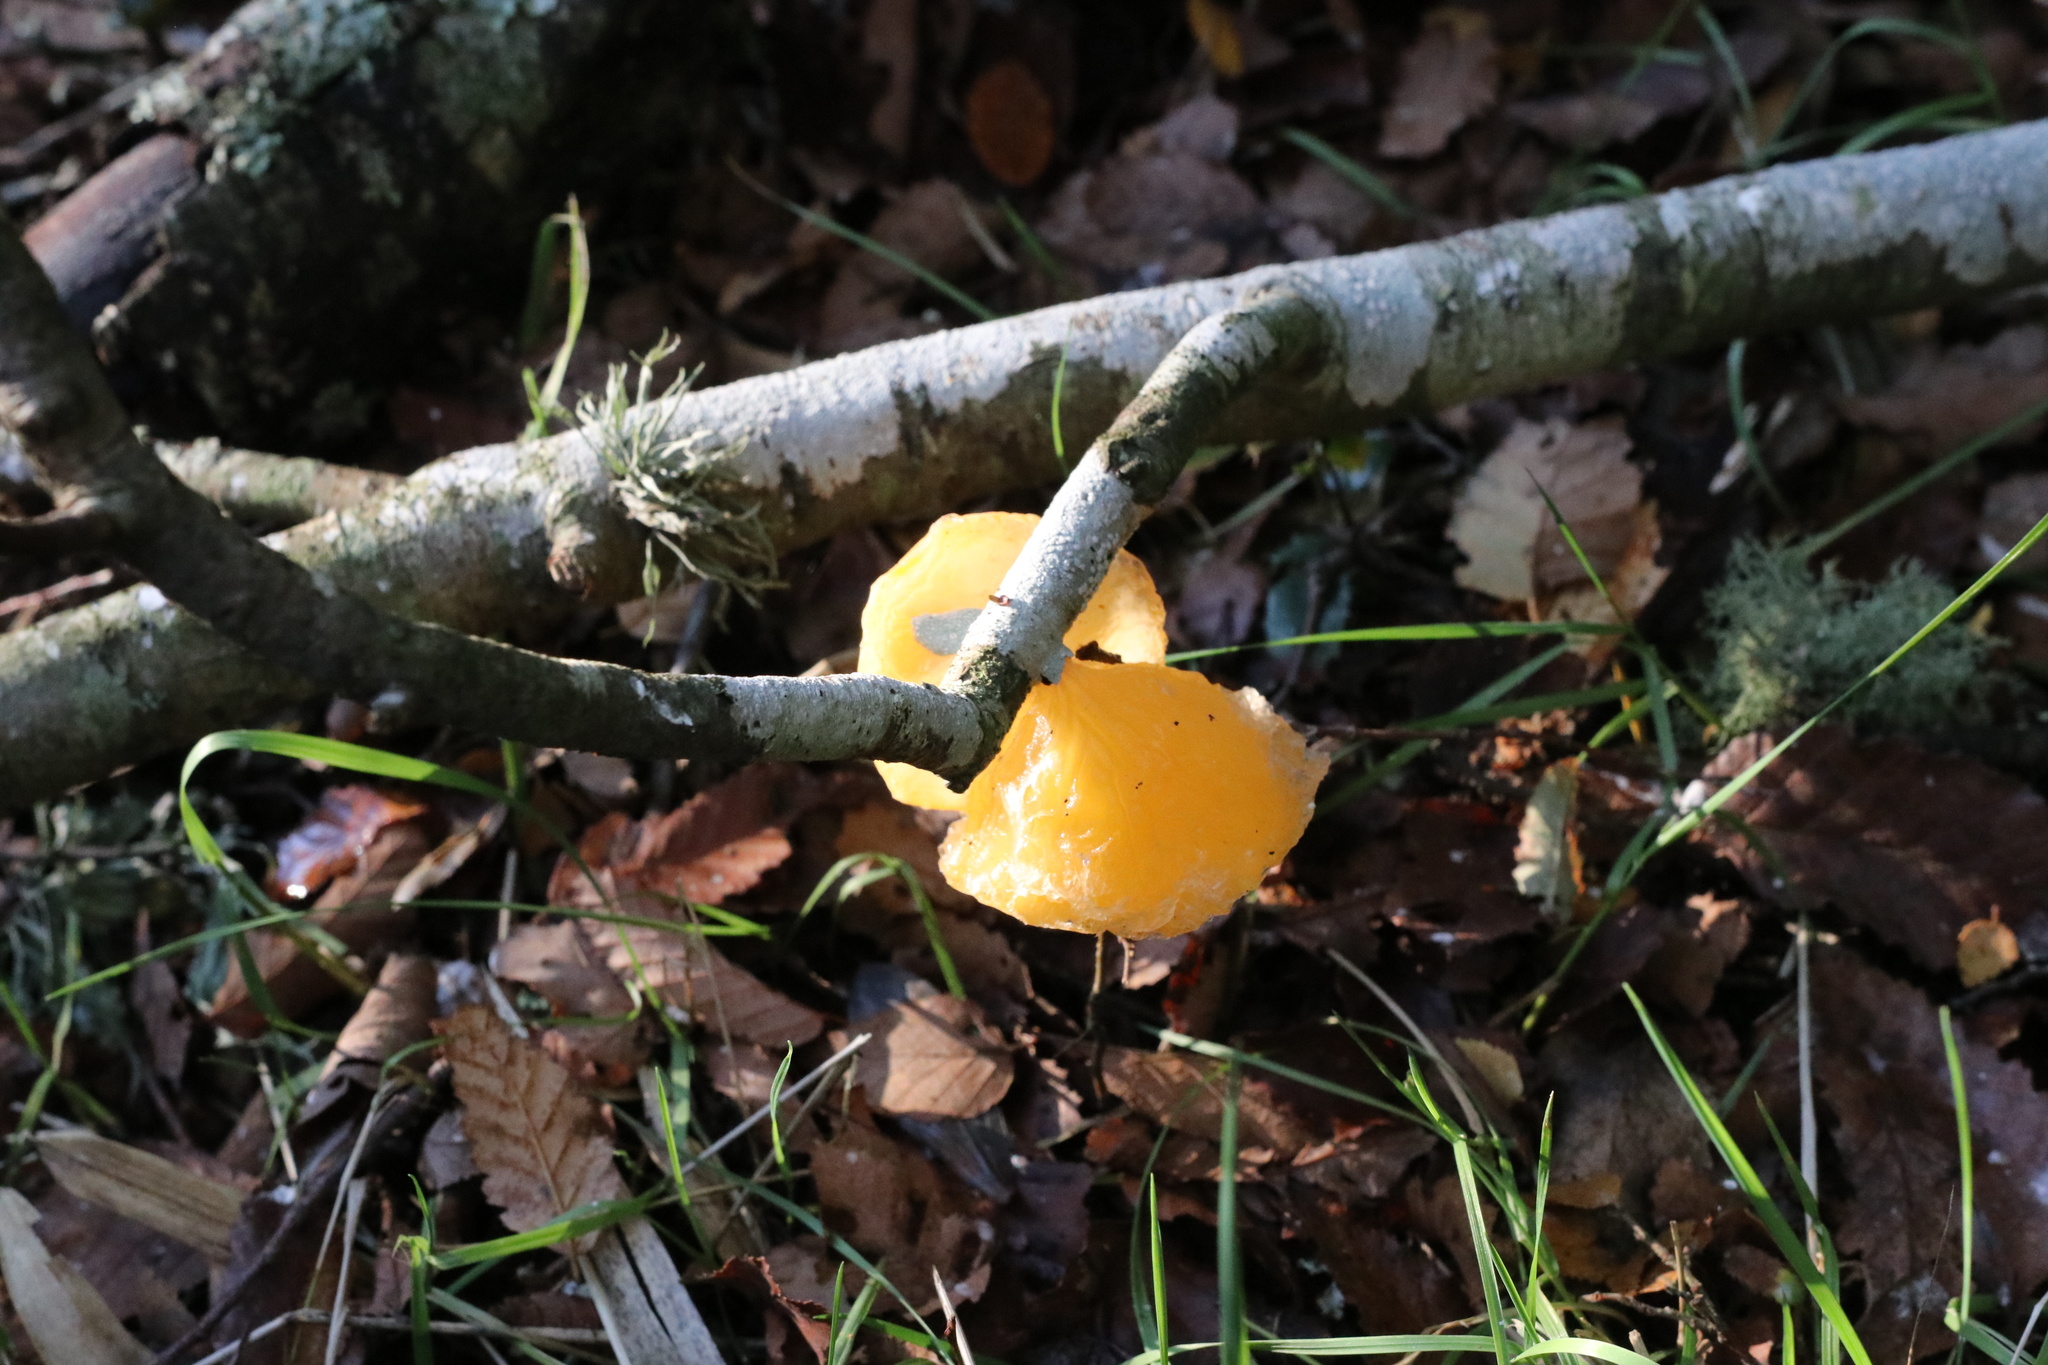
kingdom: Fungi
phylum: Basidiomycota
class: Agaricomycetes
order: Russulales
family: Stereaceae
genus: Aleurodiscus
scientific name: Aleurodiscus vitellinus
